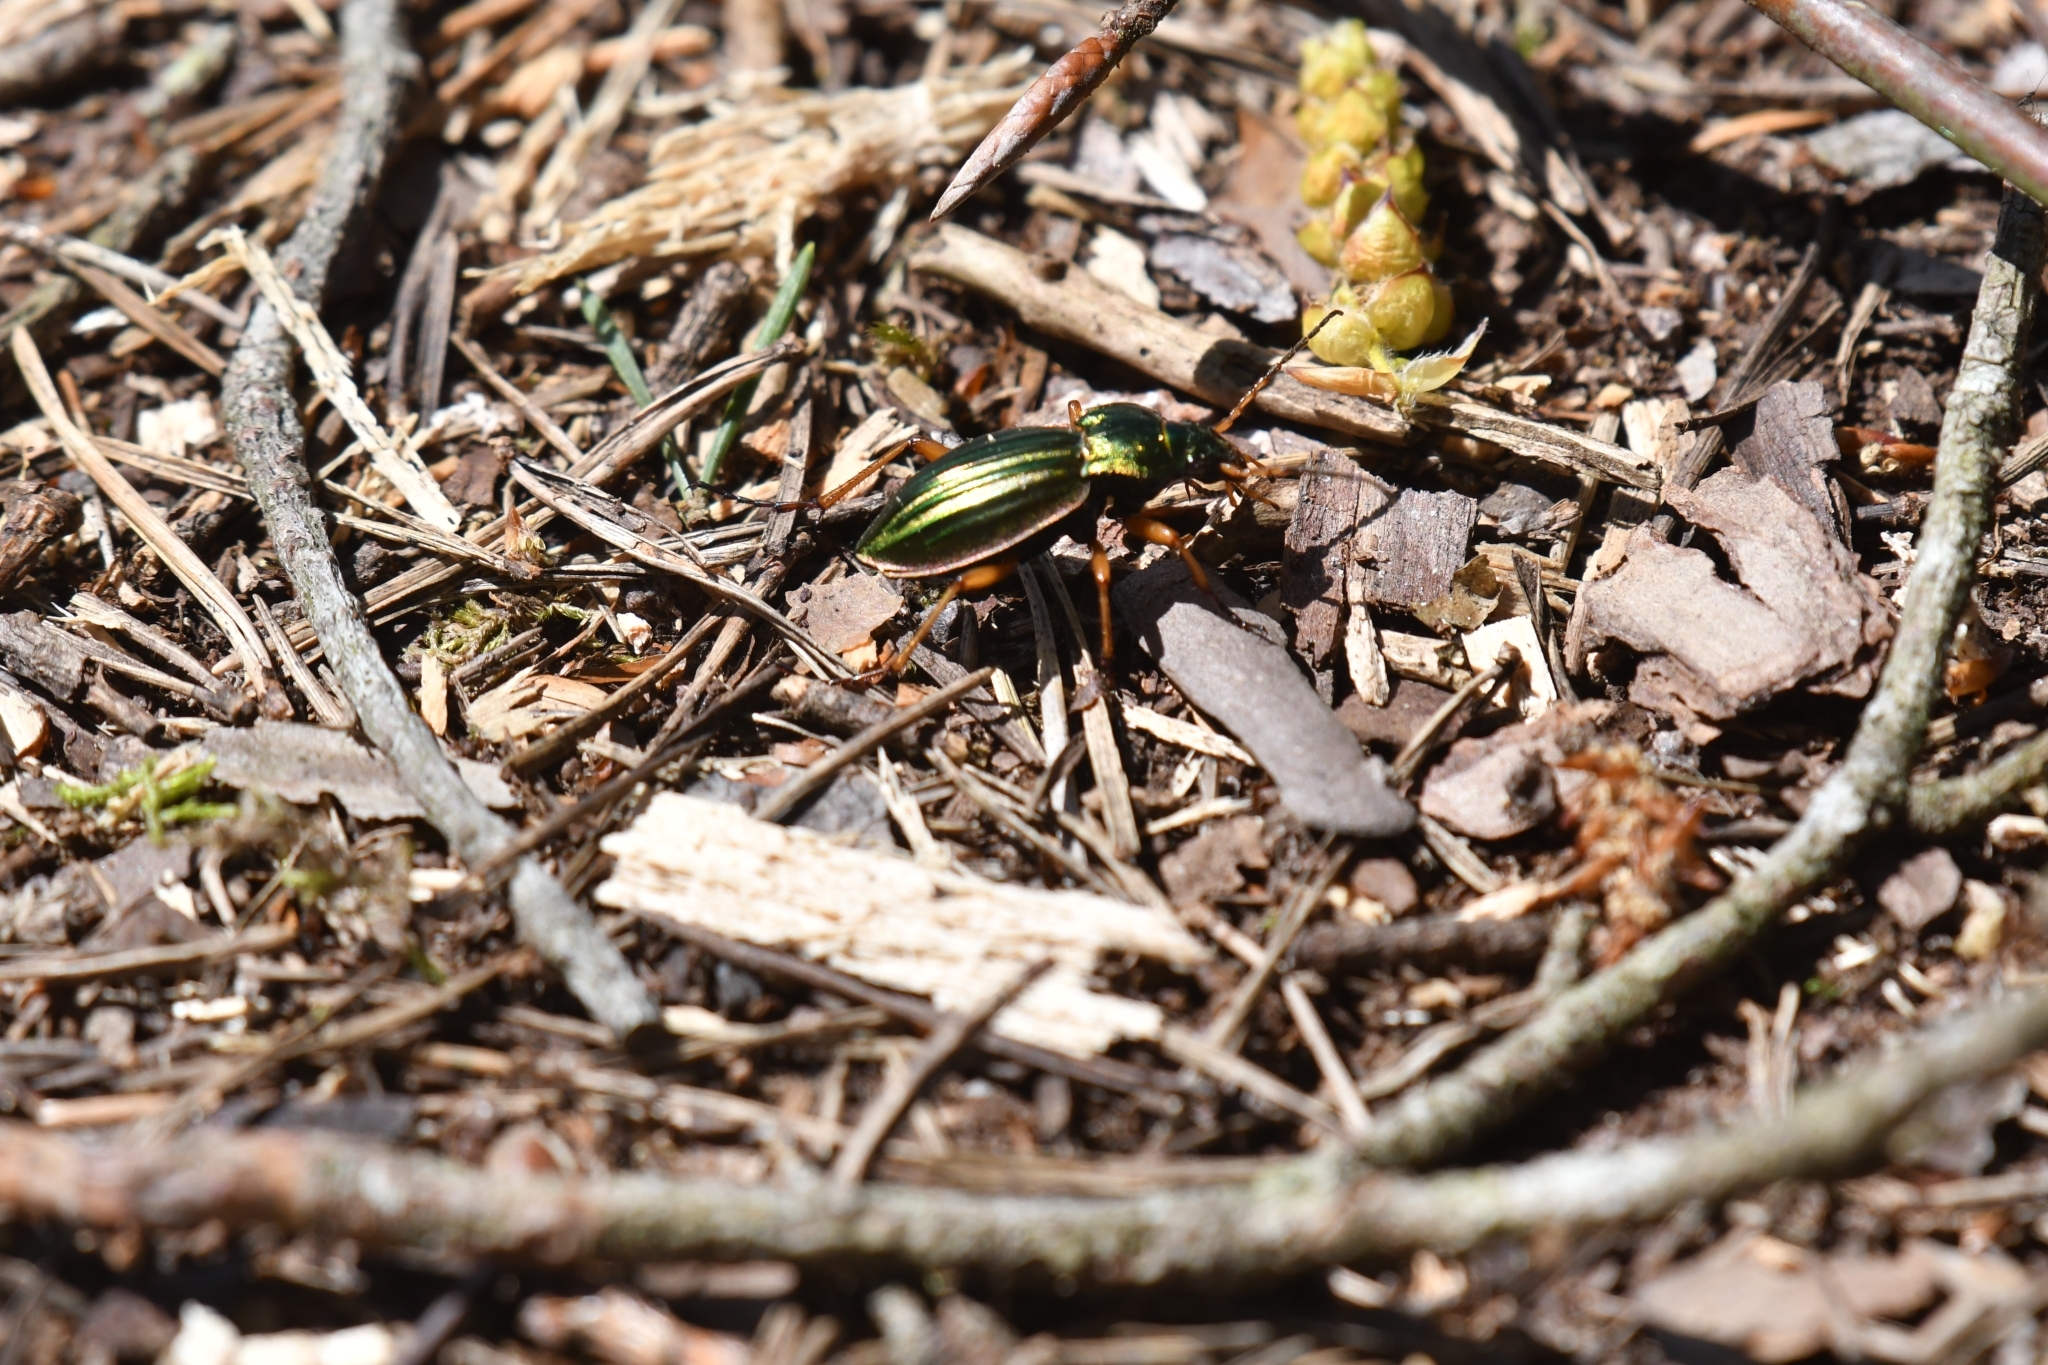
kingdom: Animalia
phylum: Arthropoda
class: Insecta
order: Coleoptera
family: Carabidae
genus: Carabus
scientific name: Carabus auratus
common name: Golden ground beetle
